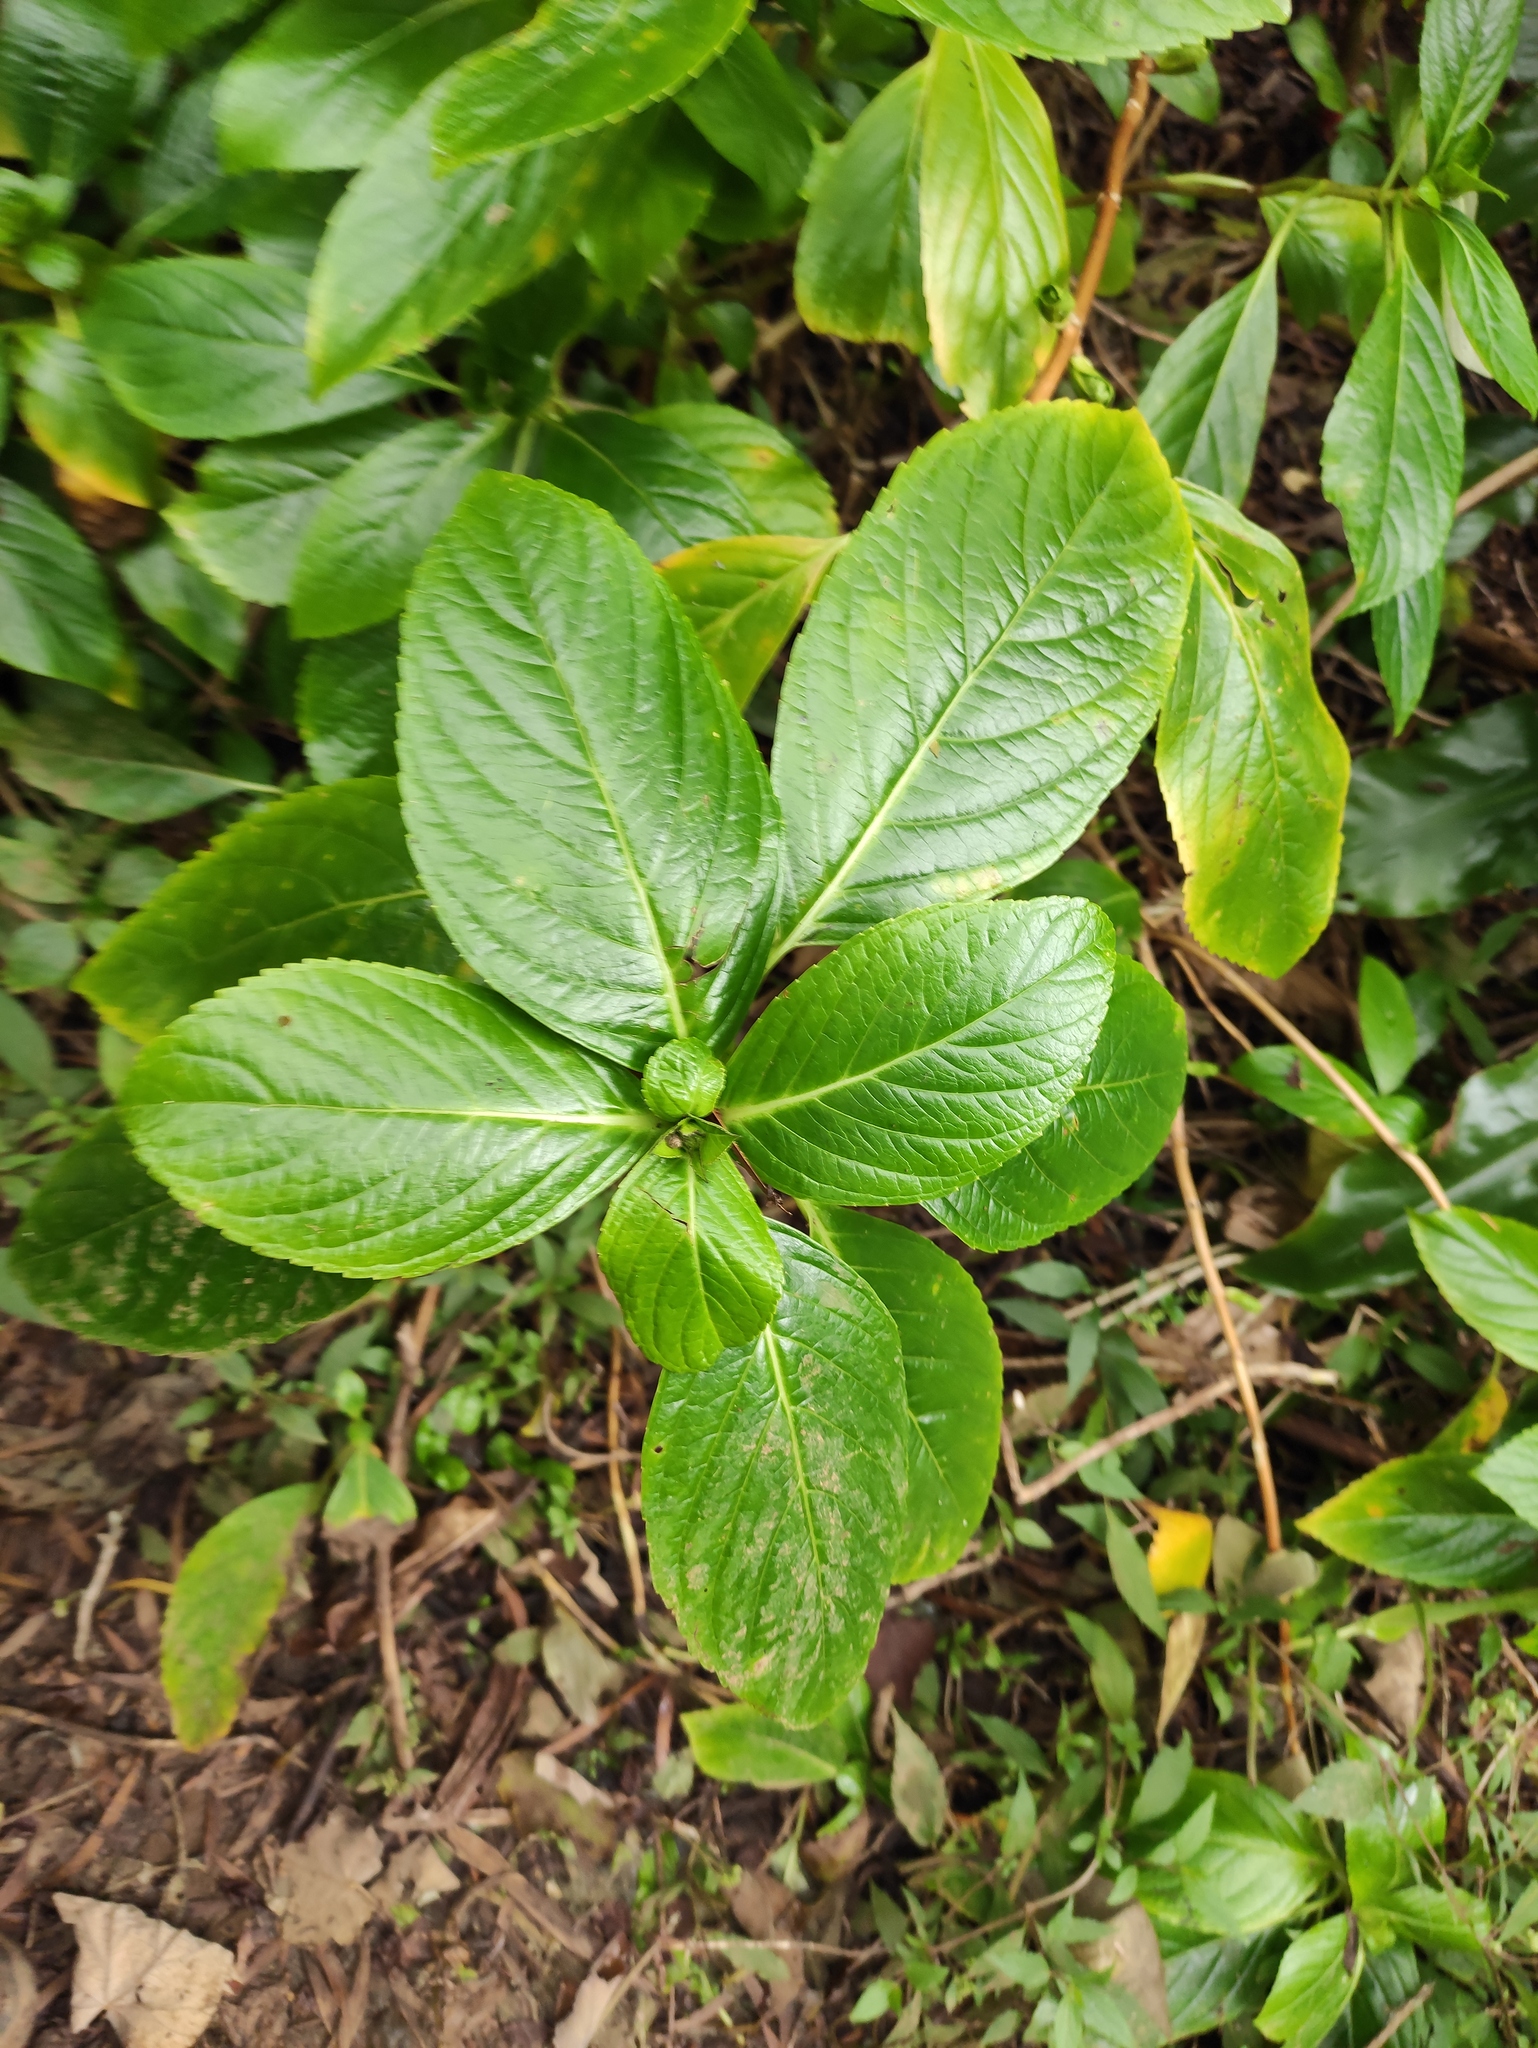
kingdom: Plantae
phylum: Tracheophyta
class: Magnoliopsida
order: Lamiales
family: Acanthaceae
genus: Strobilanthes
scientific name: Strobilanthes hamiltoniana
